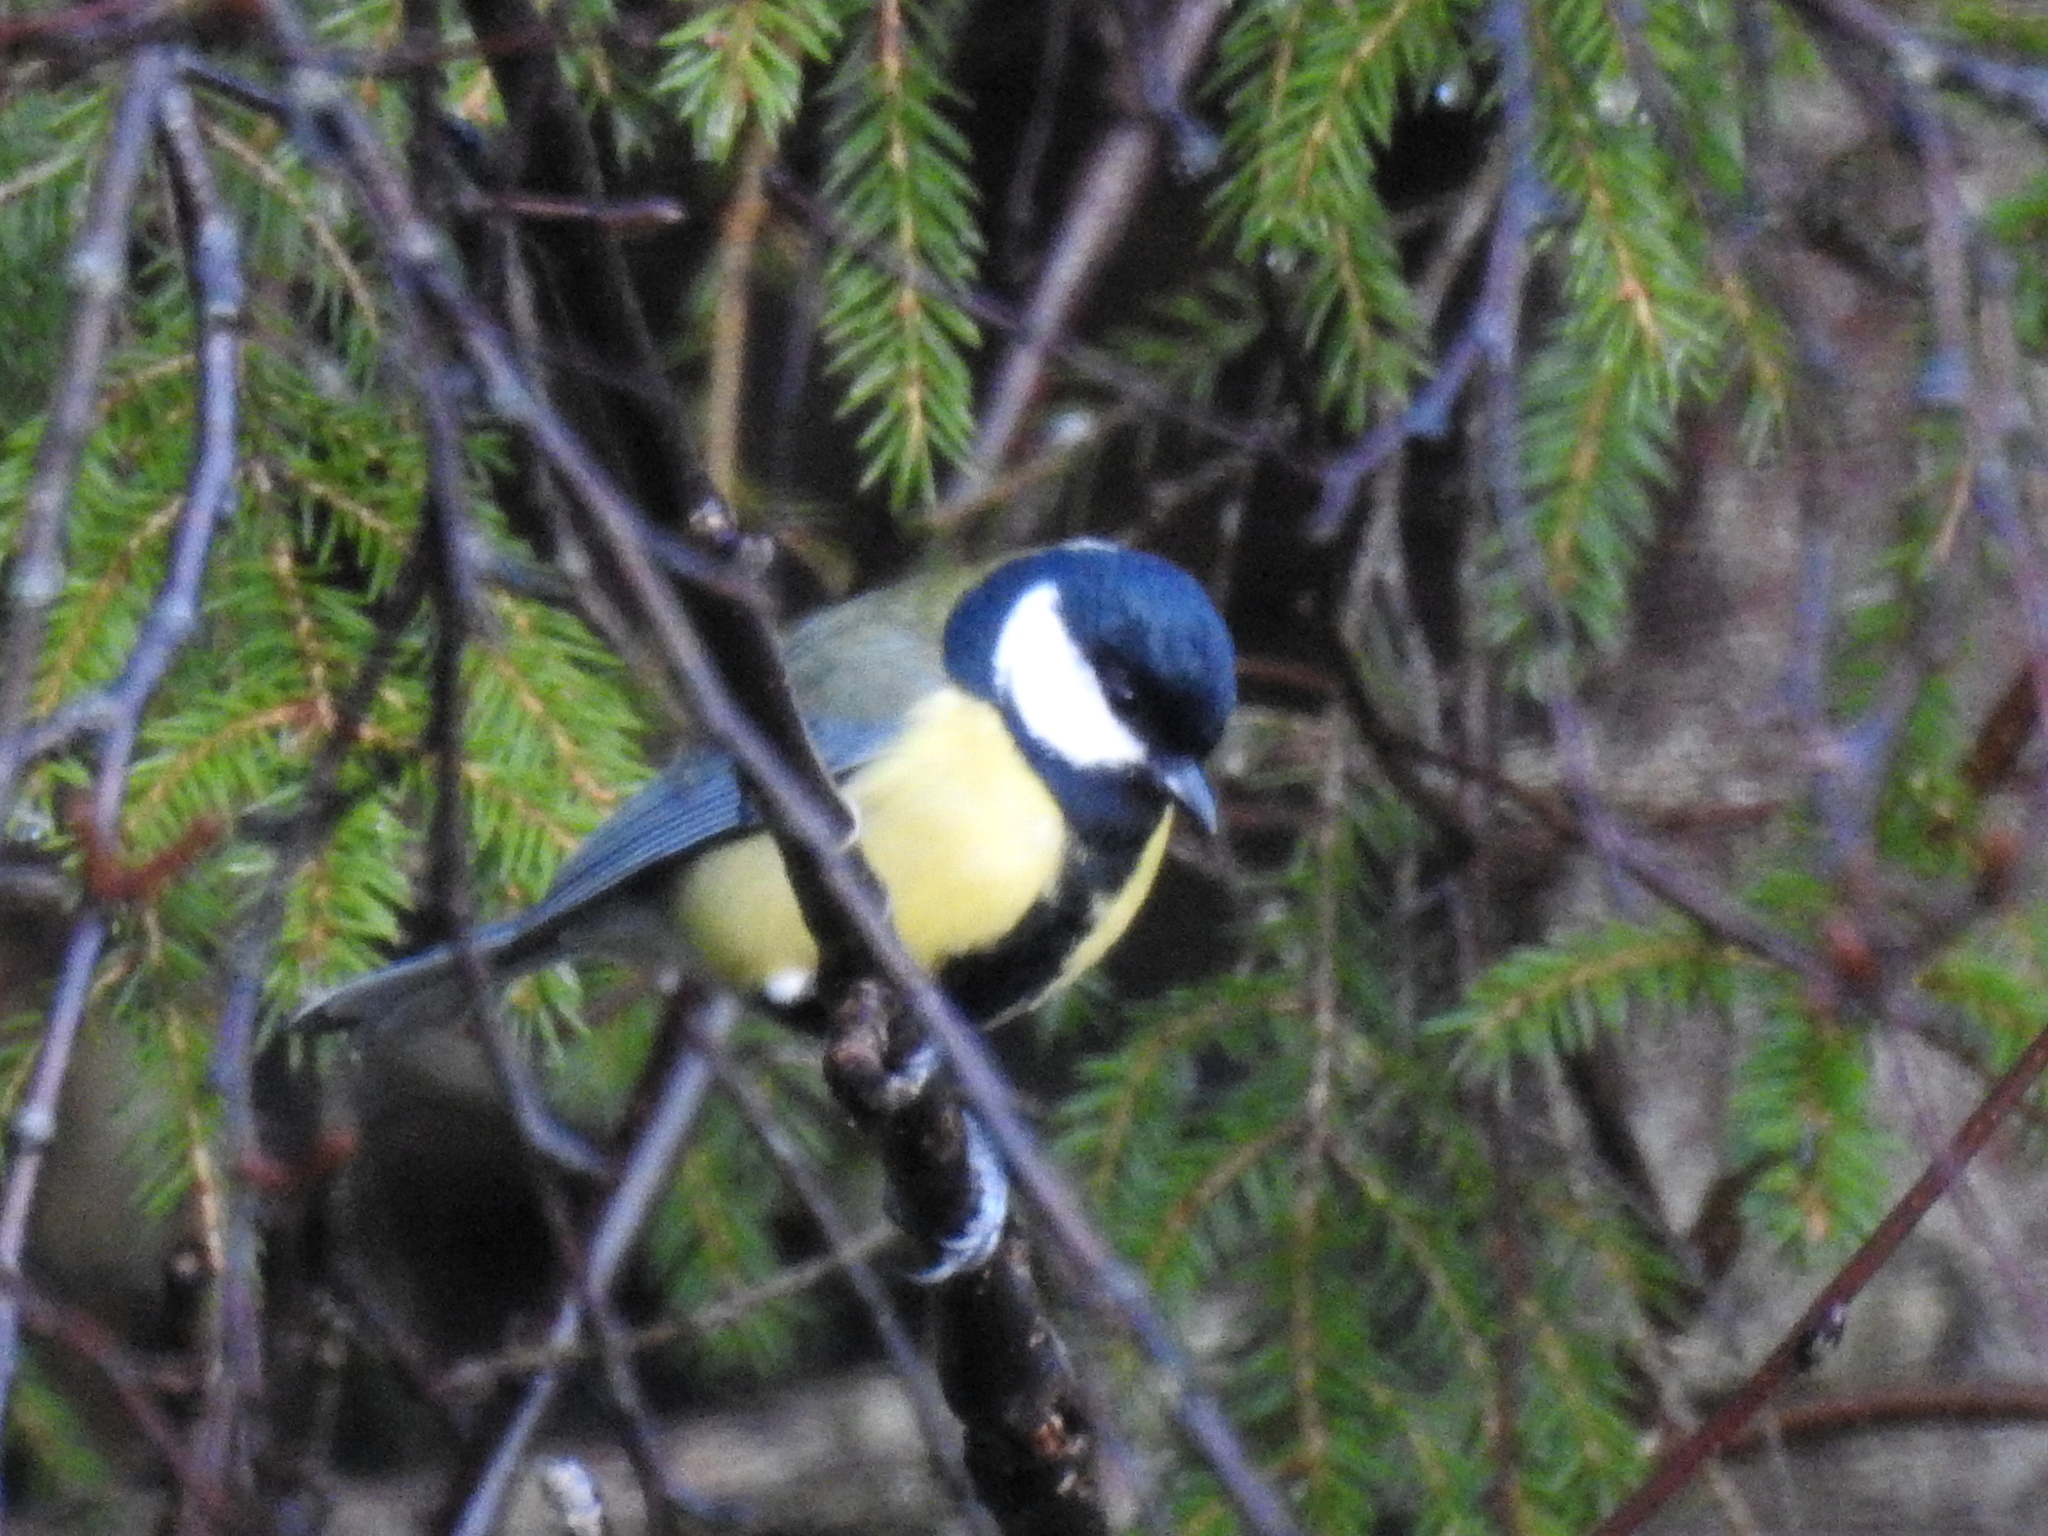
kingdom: Animalia
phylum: Chordata
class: Aves
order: Passeriformes
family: Paridae
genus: Parus
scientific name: Parus major
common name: Great tit
